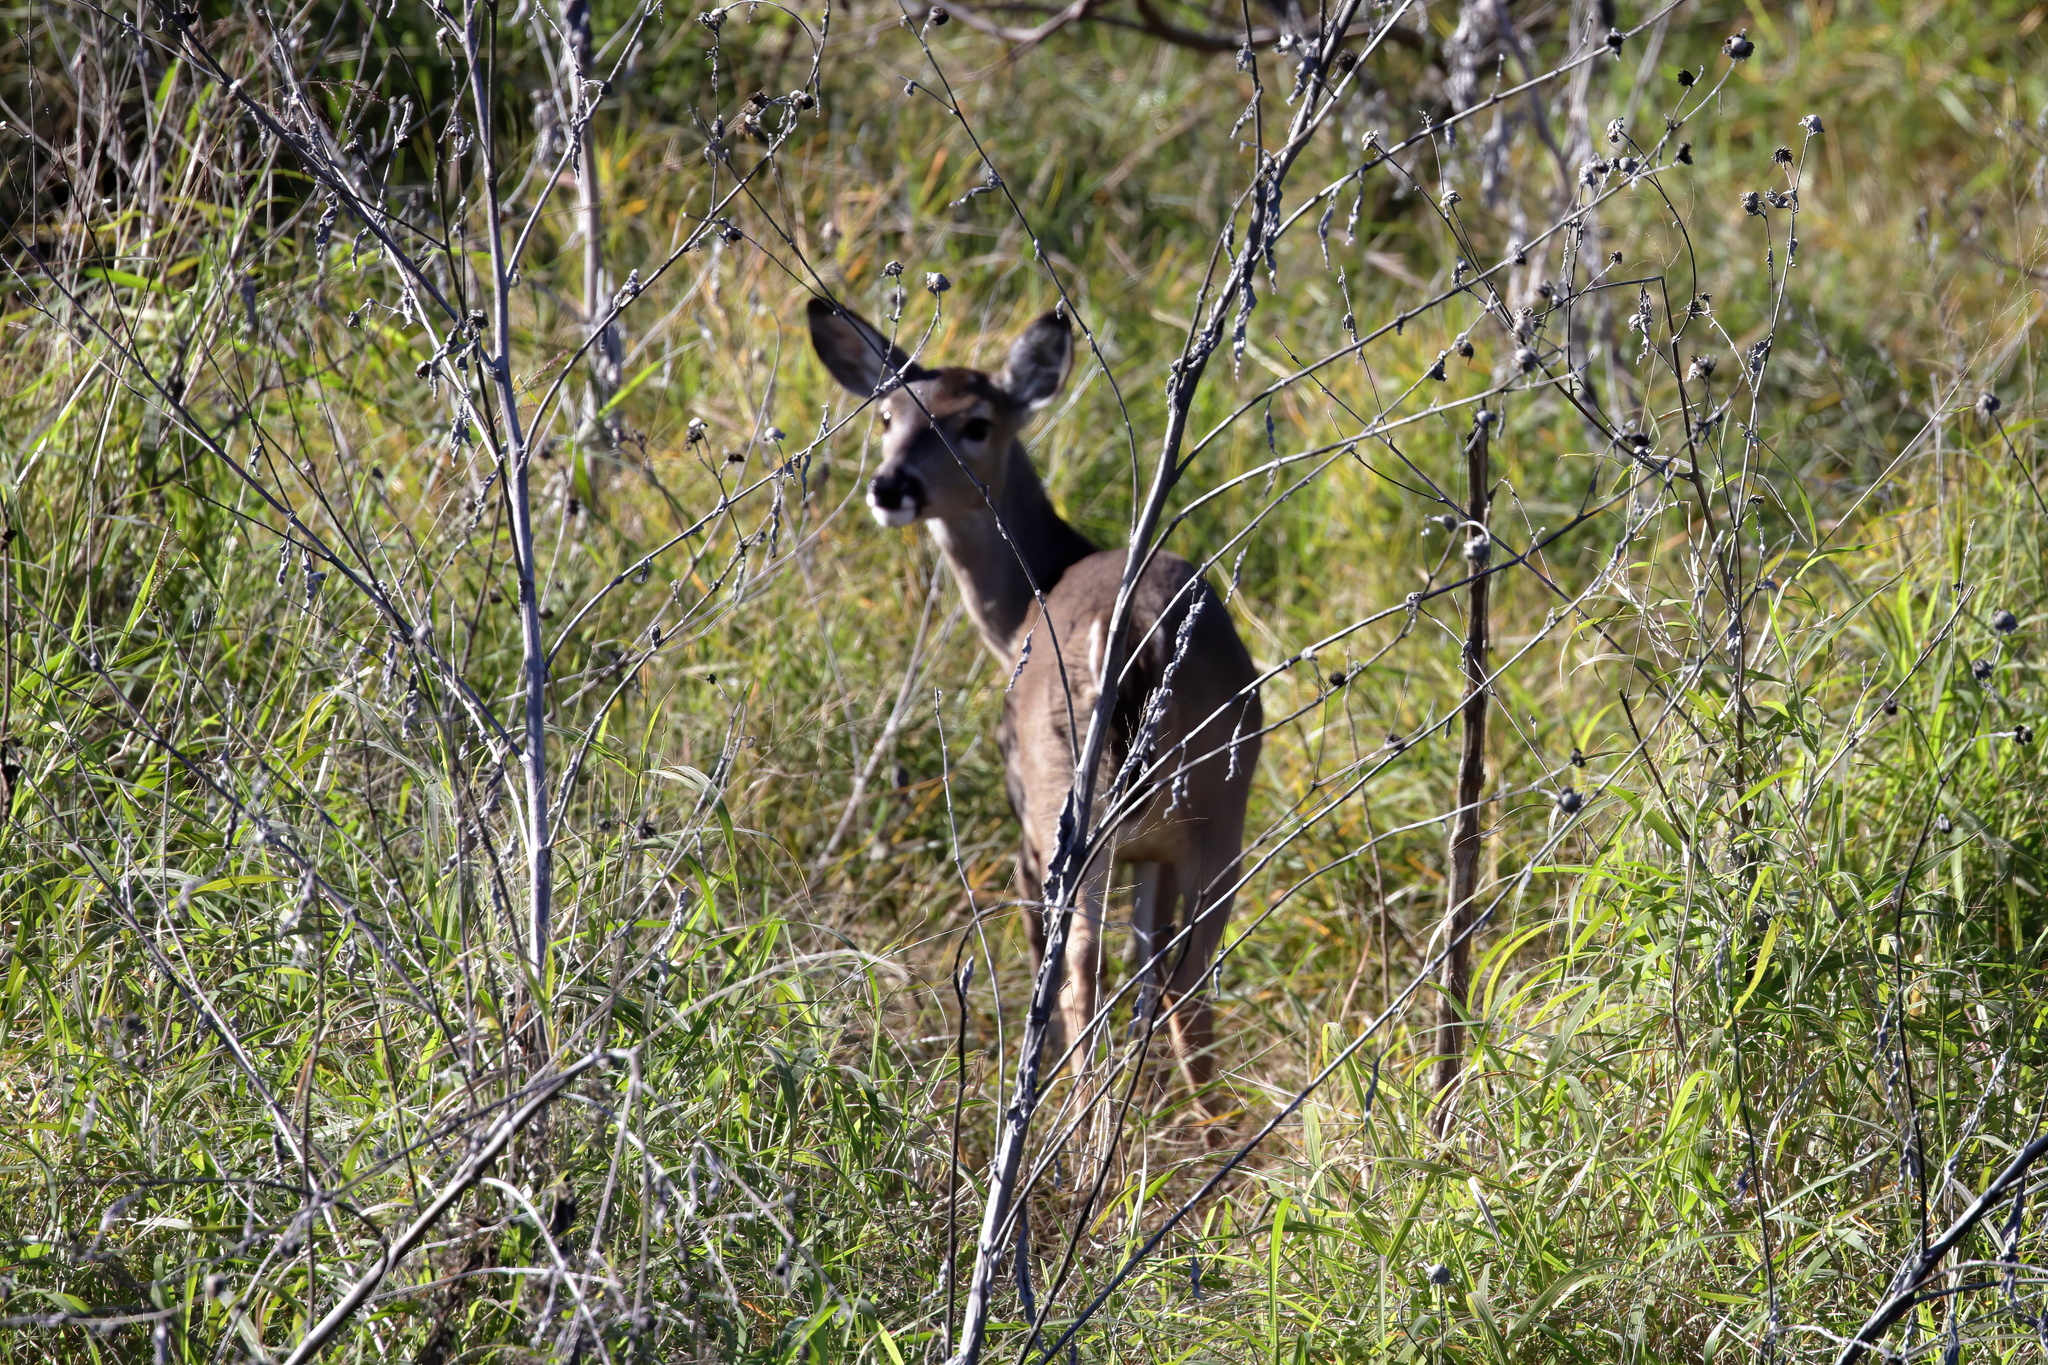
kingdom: Animalia
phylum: Chordata
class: Mammalia
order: Artiodactyla
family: Cervidae
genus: Odocoileus
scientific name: Odocoileus virginianus
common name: White-tailed deer
